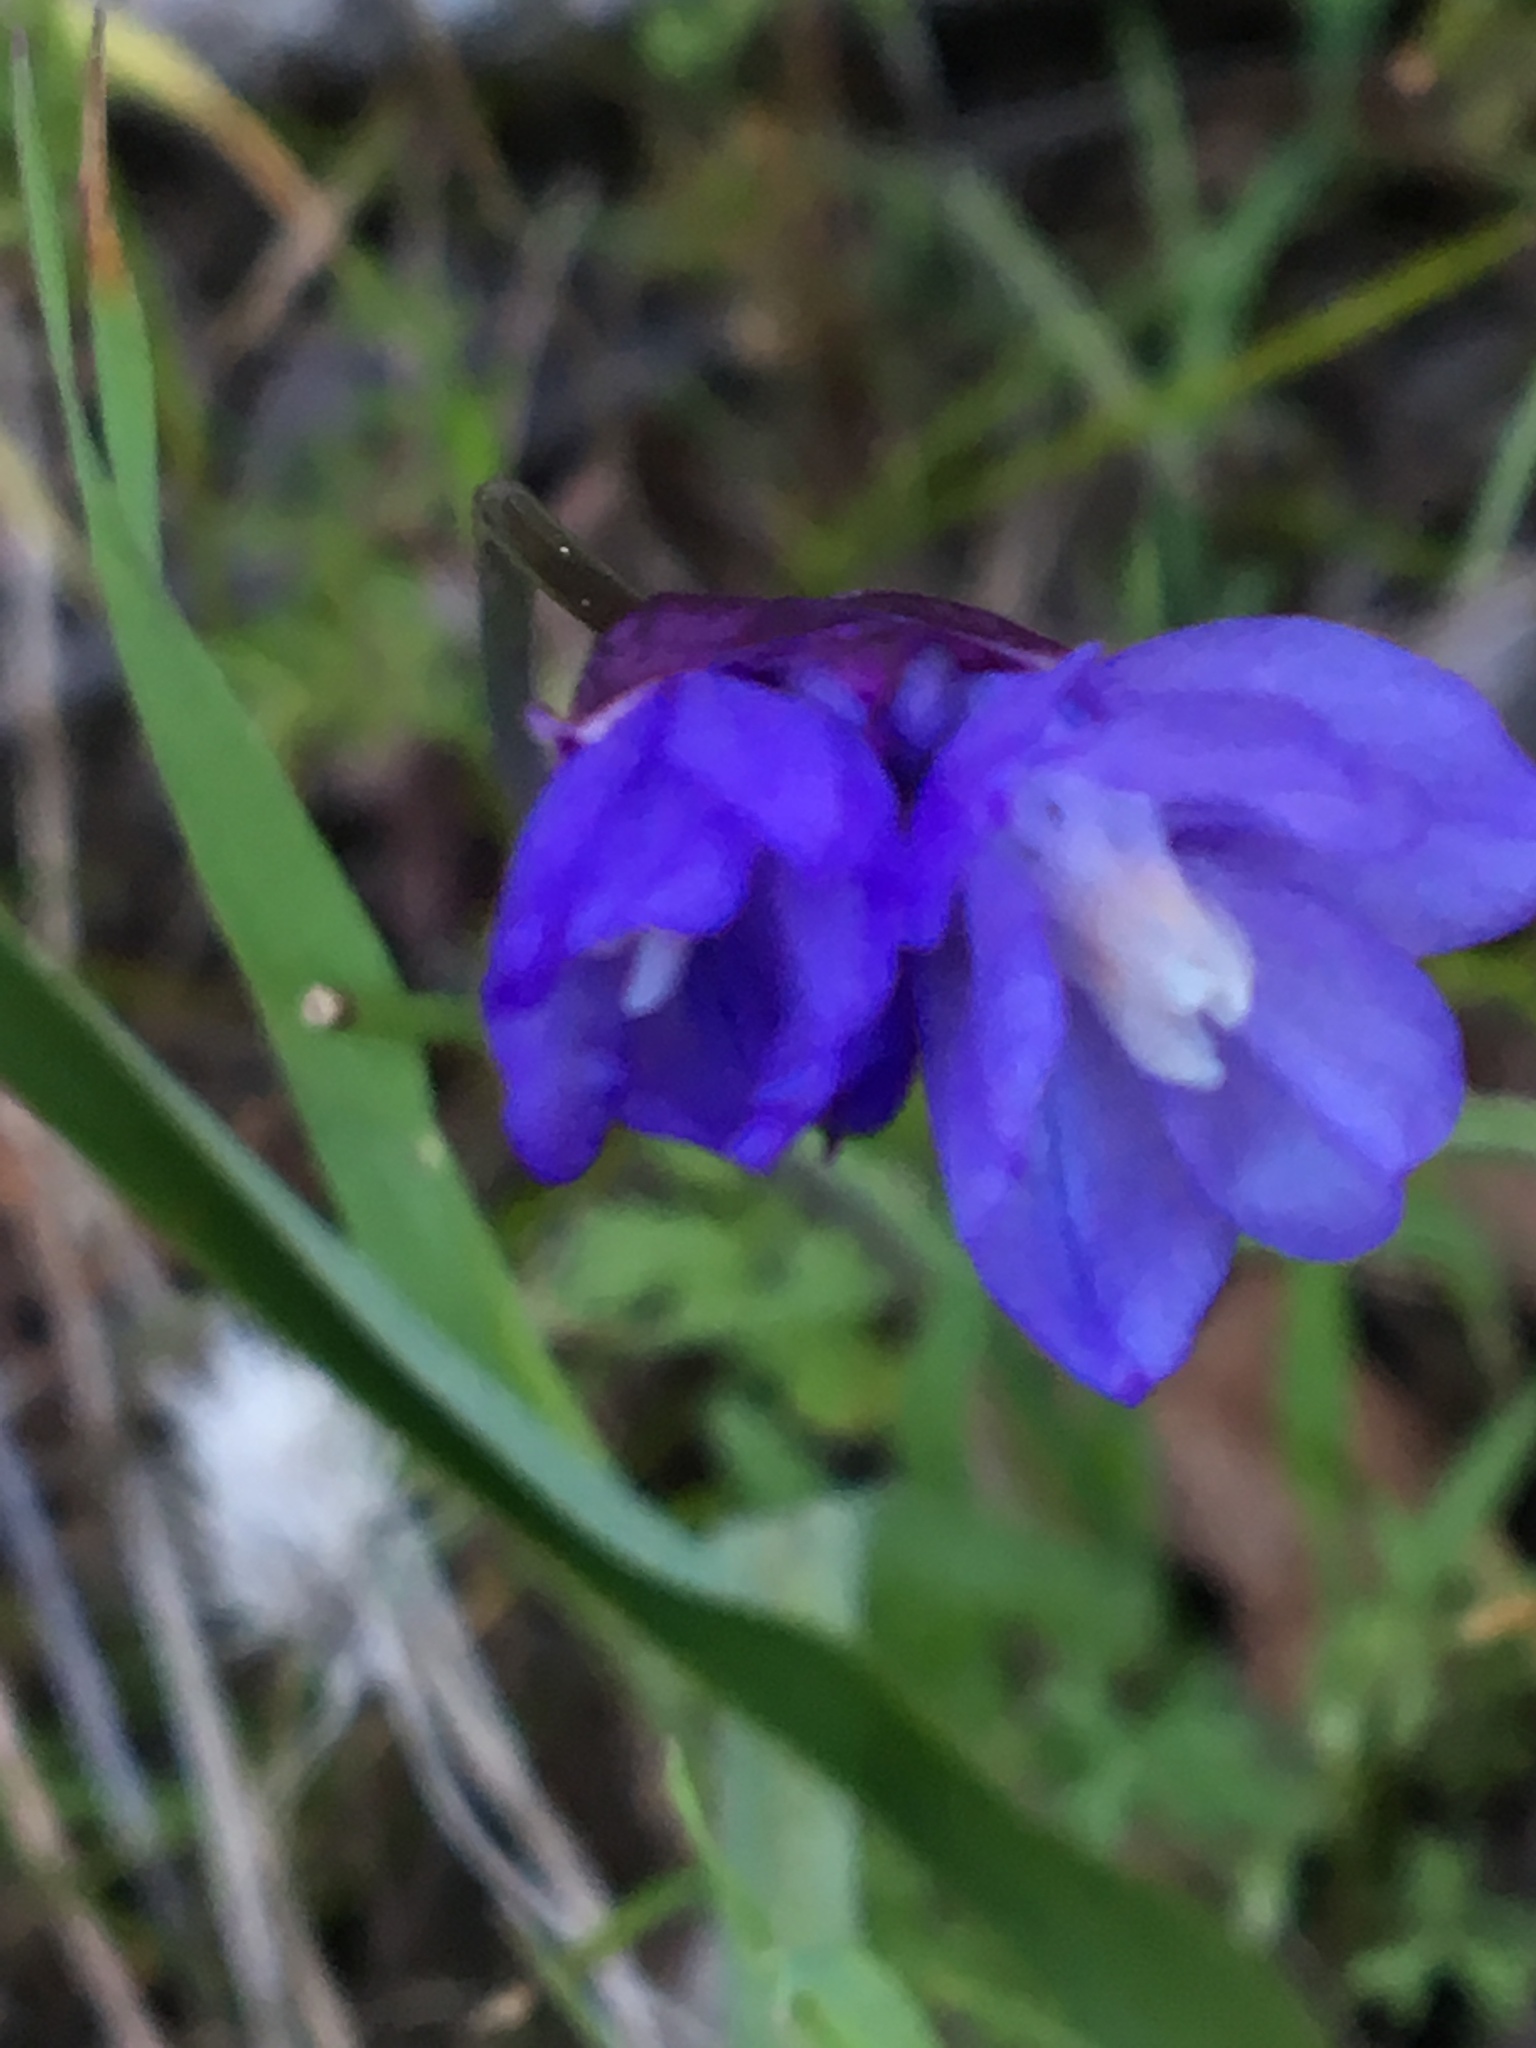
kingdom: Plantae
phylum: Tracheophyta
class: Liliopsida
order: Asparagales
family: Asparagaceae
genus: Dipterostemon
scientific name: Dipterostemon capitatus
